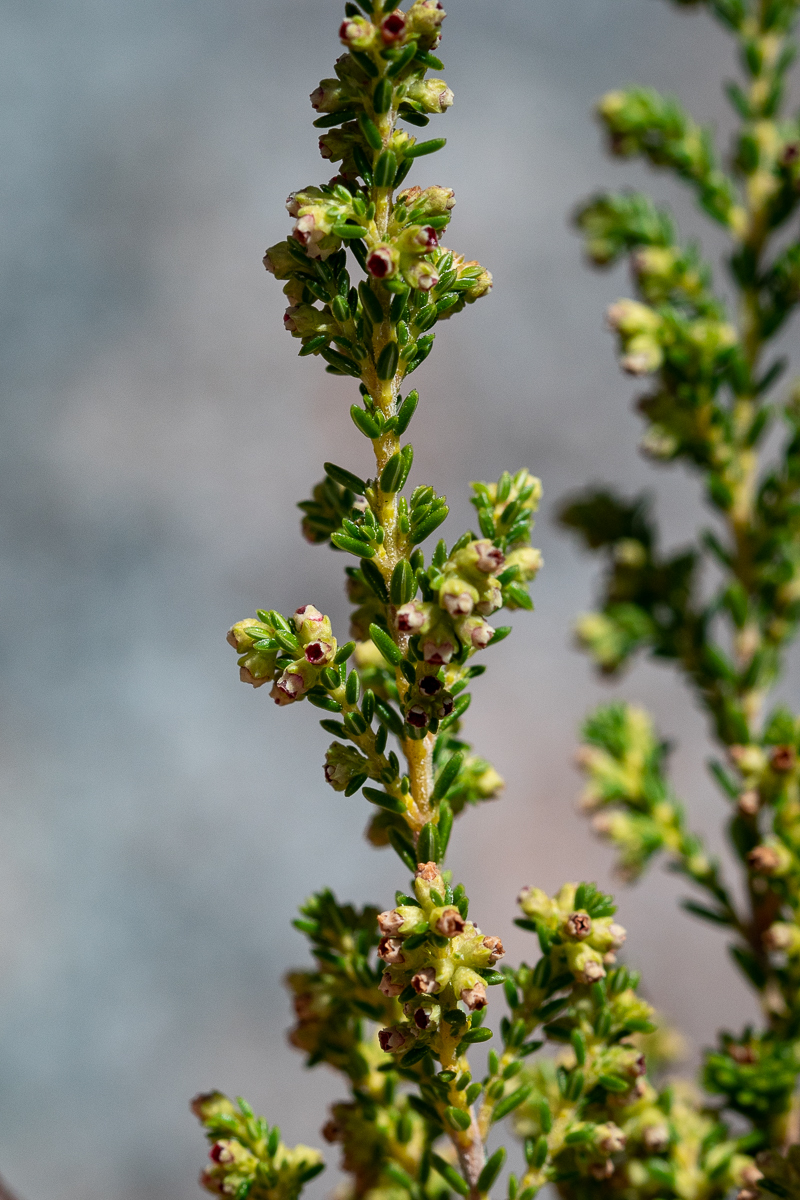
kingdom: Plantae
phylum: Tracheophyta
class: Magnoliopsida
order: Ericales
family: Ericaceae
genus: Erica
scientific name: Erica serrata
